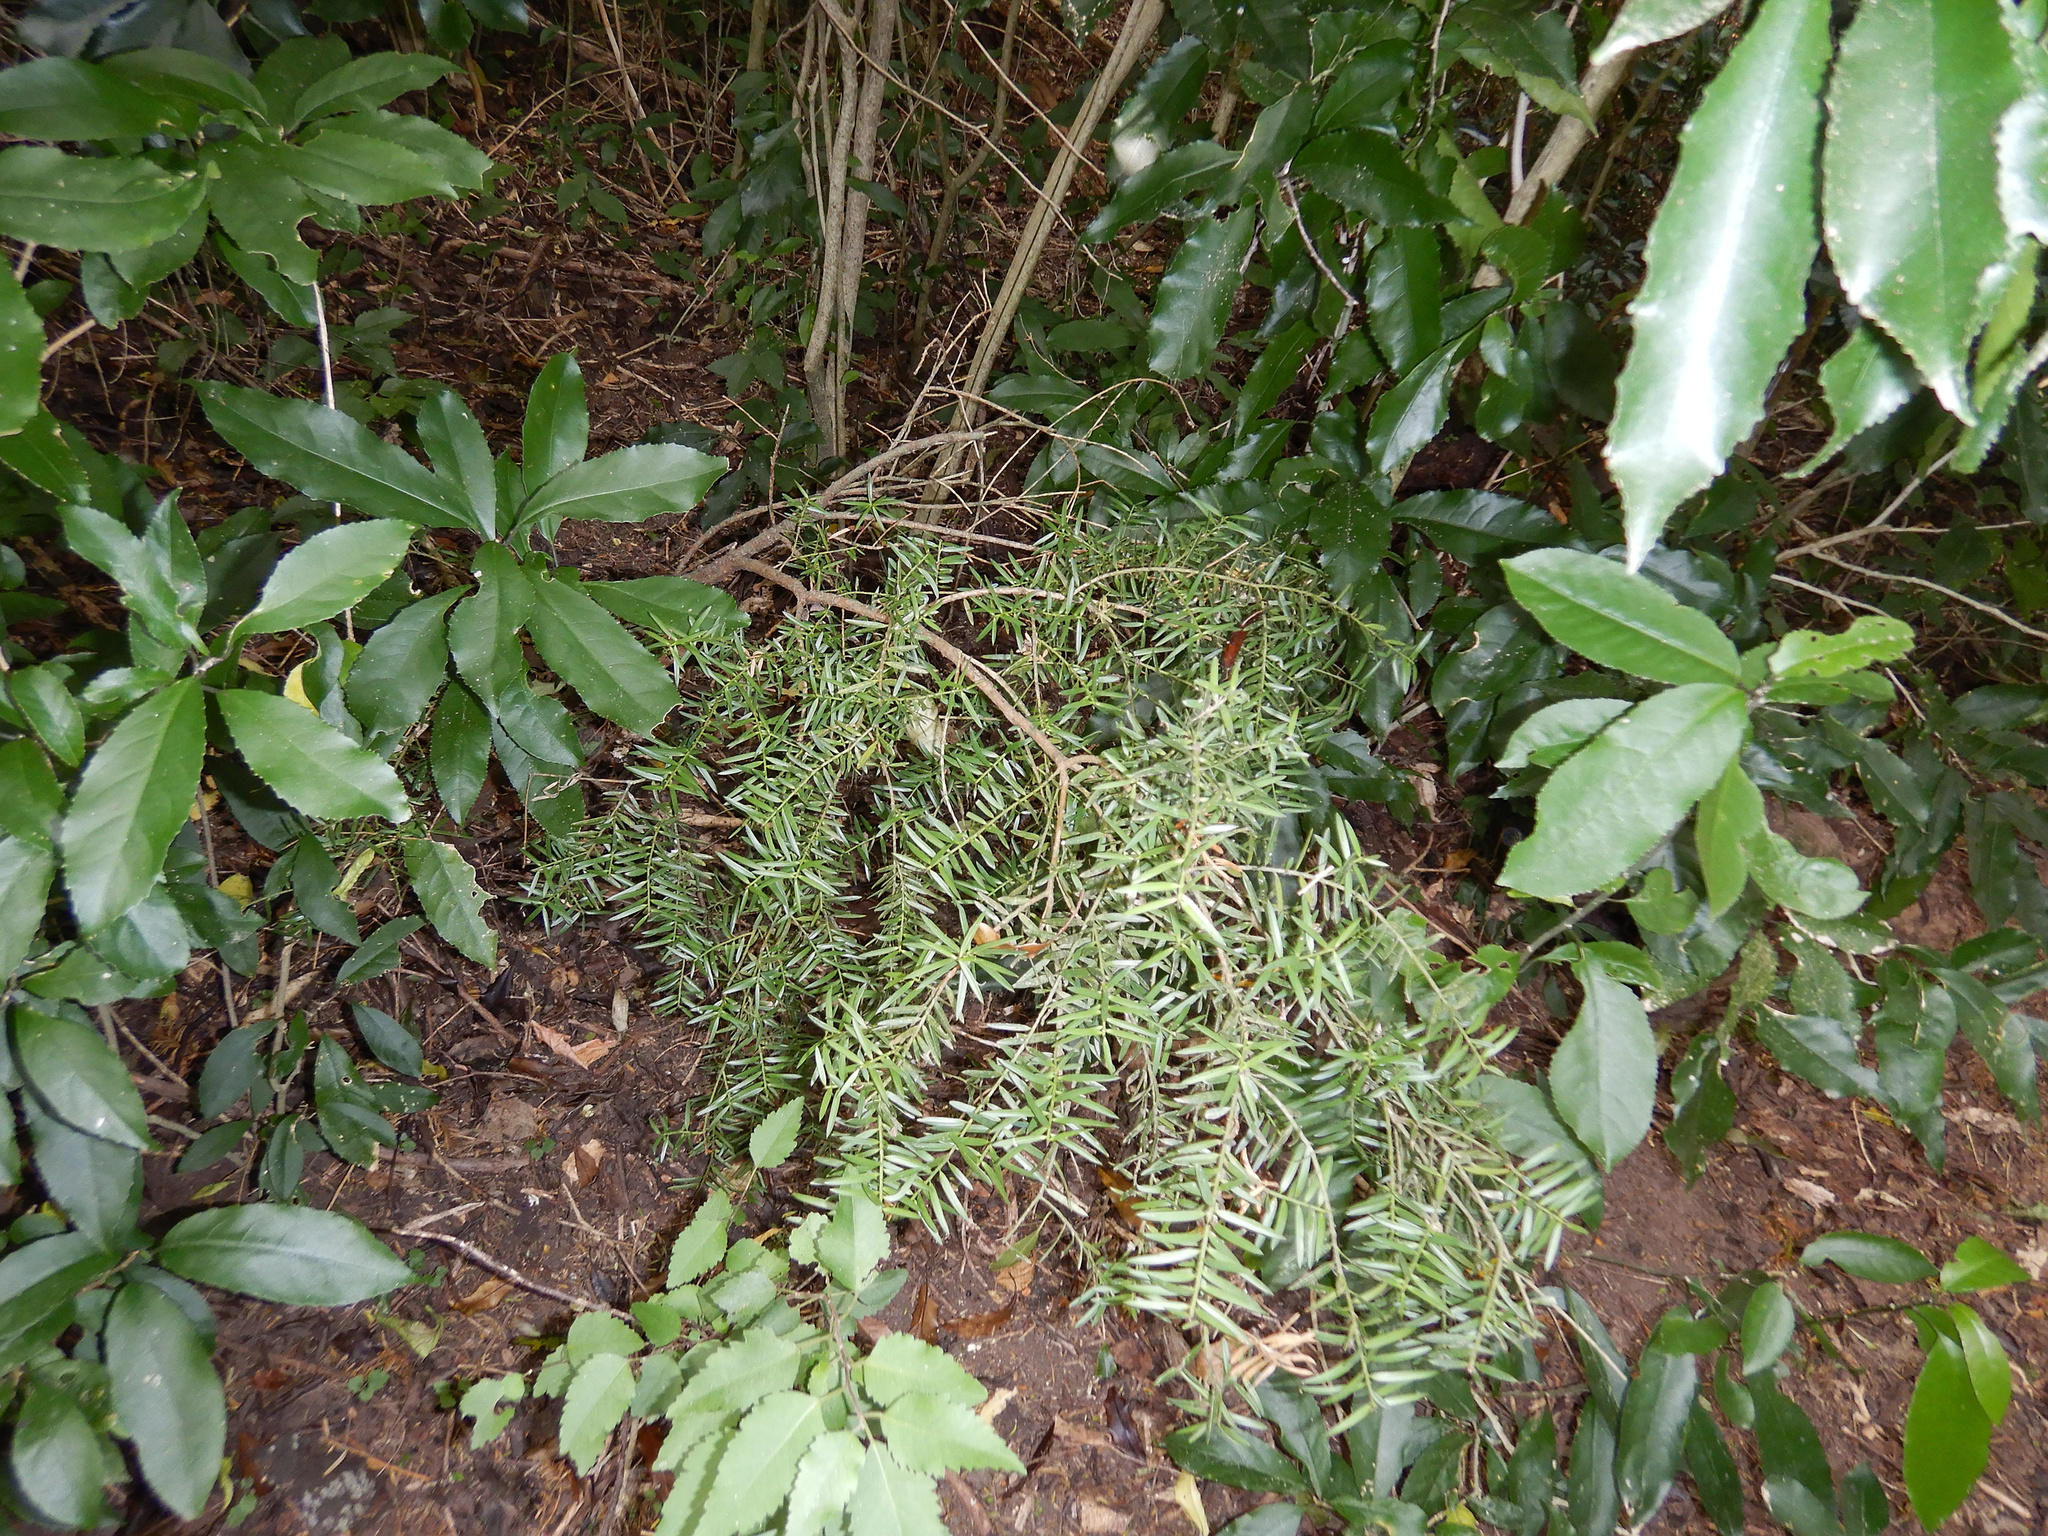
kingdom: Plantae
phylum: Tracheophyta
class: Pinopsida
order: Pinales
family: Podocarpaceae
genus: Podocarpus
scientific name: Podocarpus totara
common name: Totara
